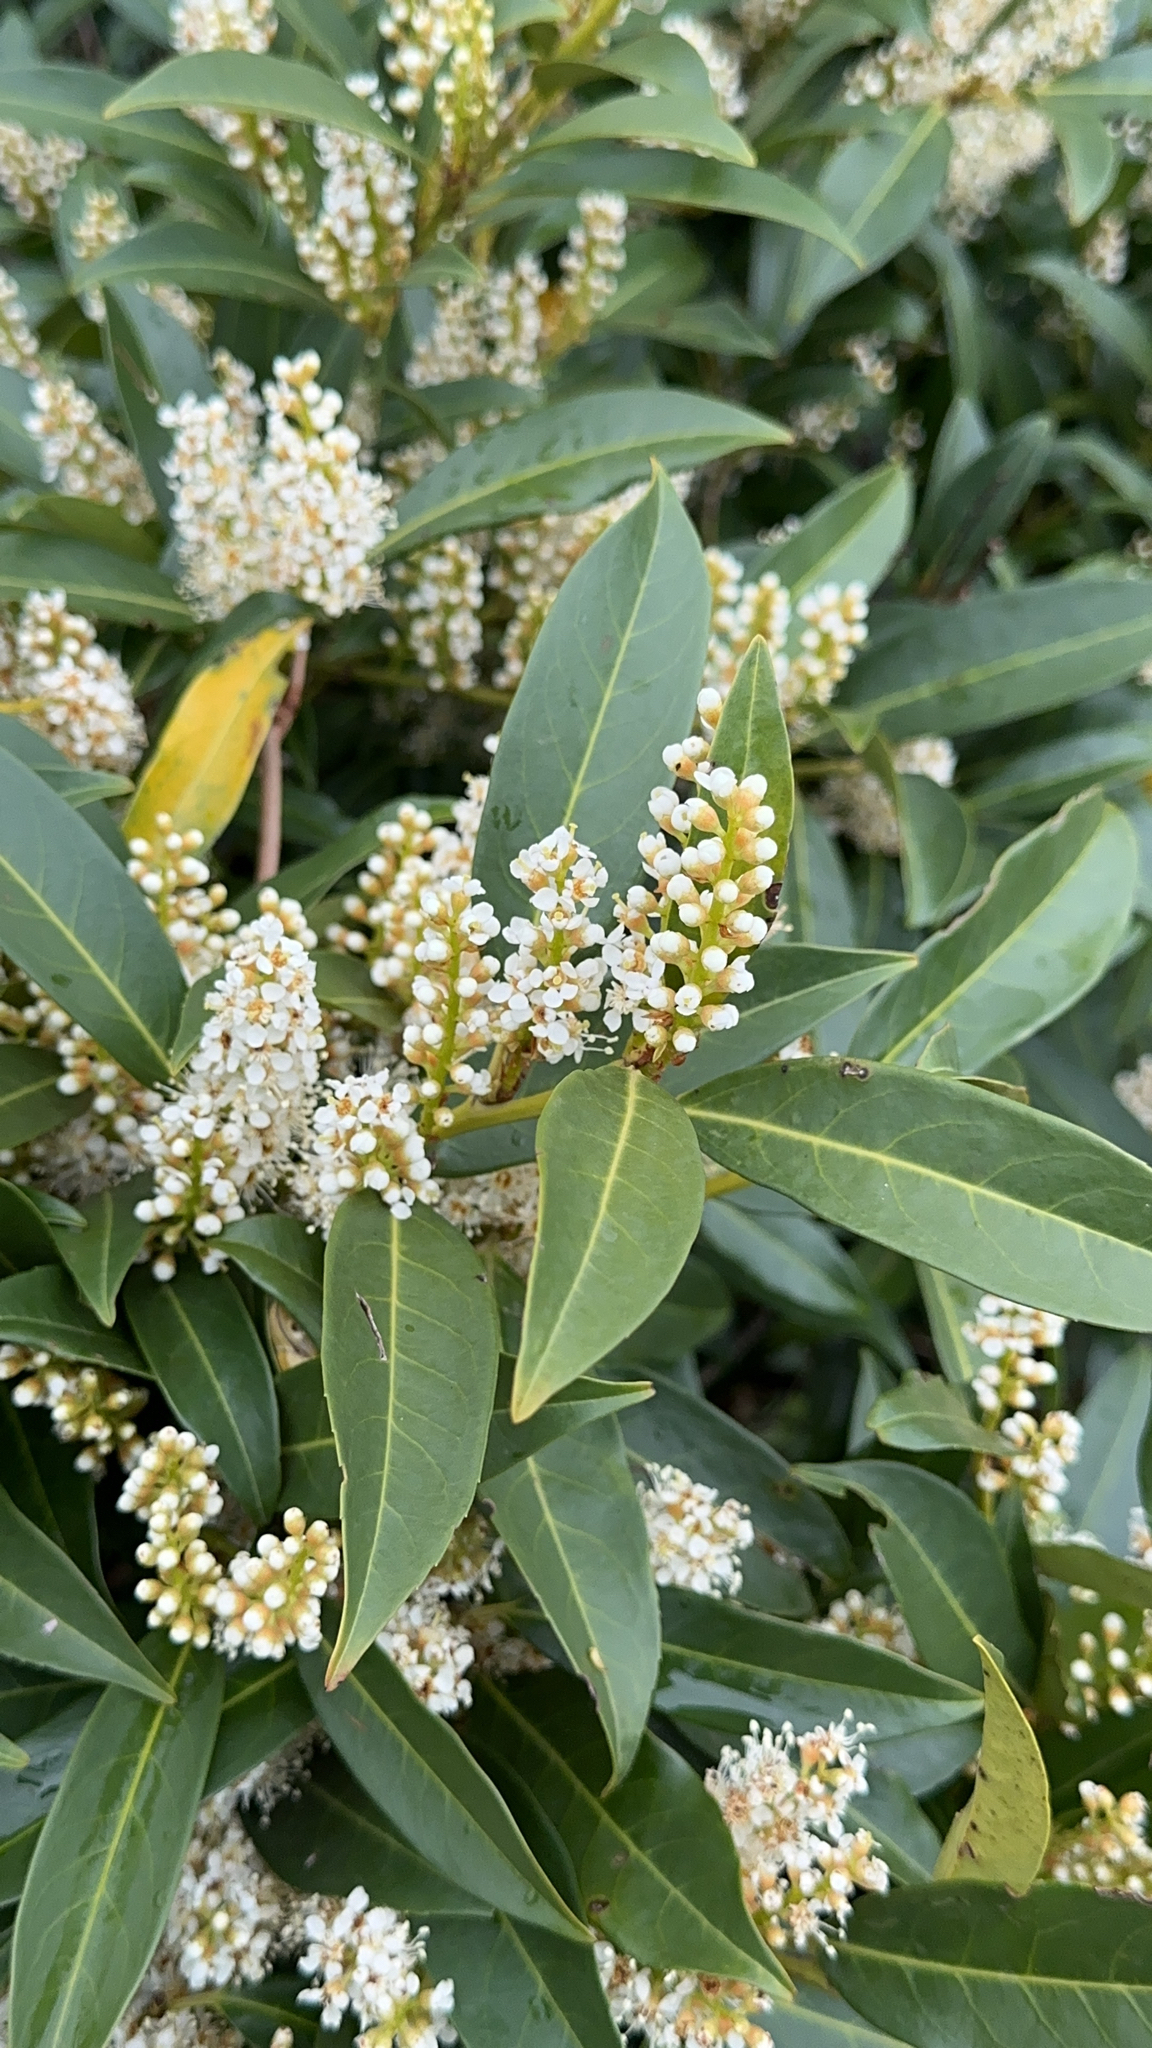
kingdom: Plantae
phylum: Tracheophyta
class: Magnoliopsida
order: Rosales
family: Rosaceae
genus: Prunus
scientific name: Prunus laurocerasus
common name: Cherry laurel
